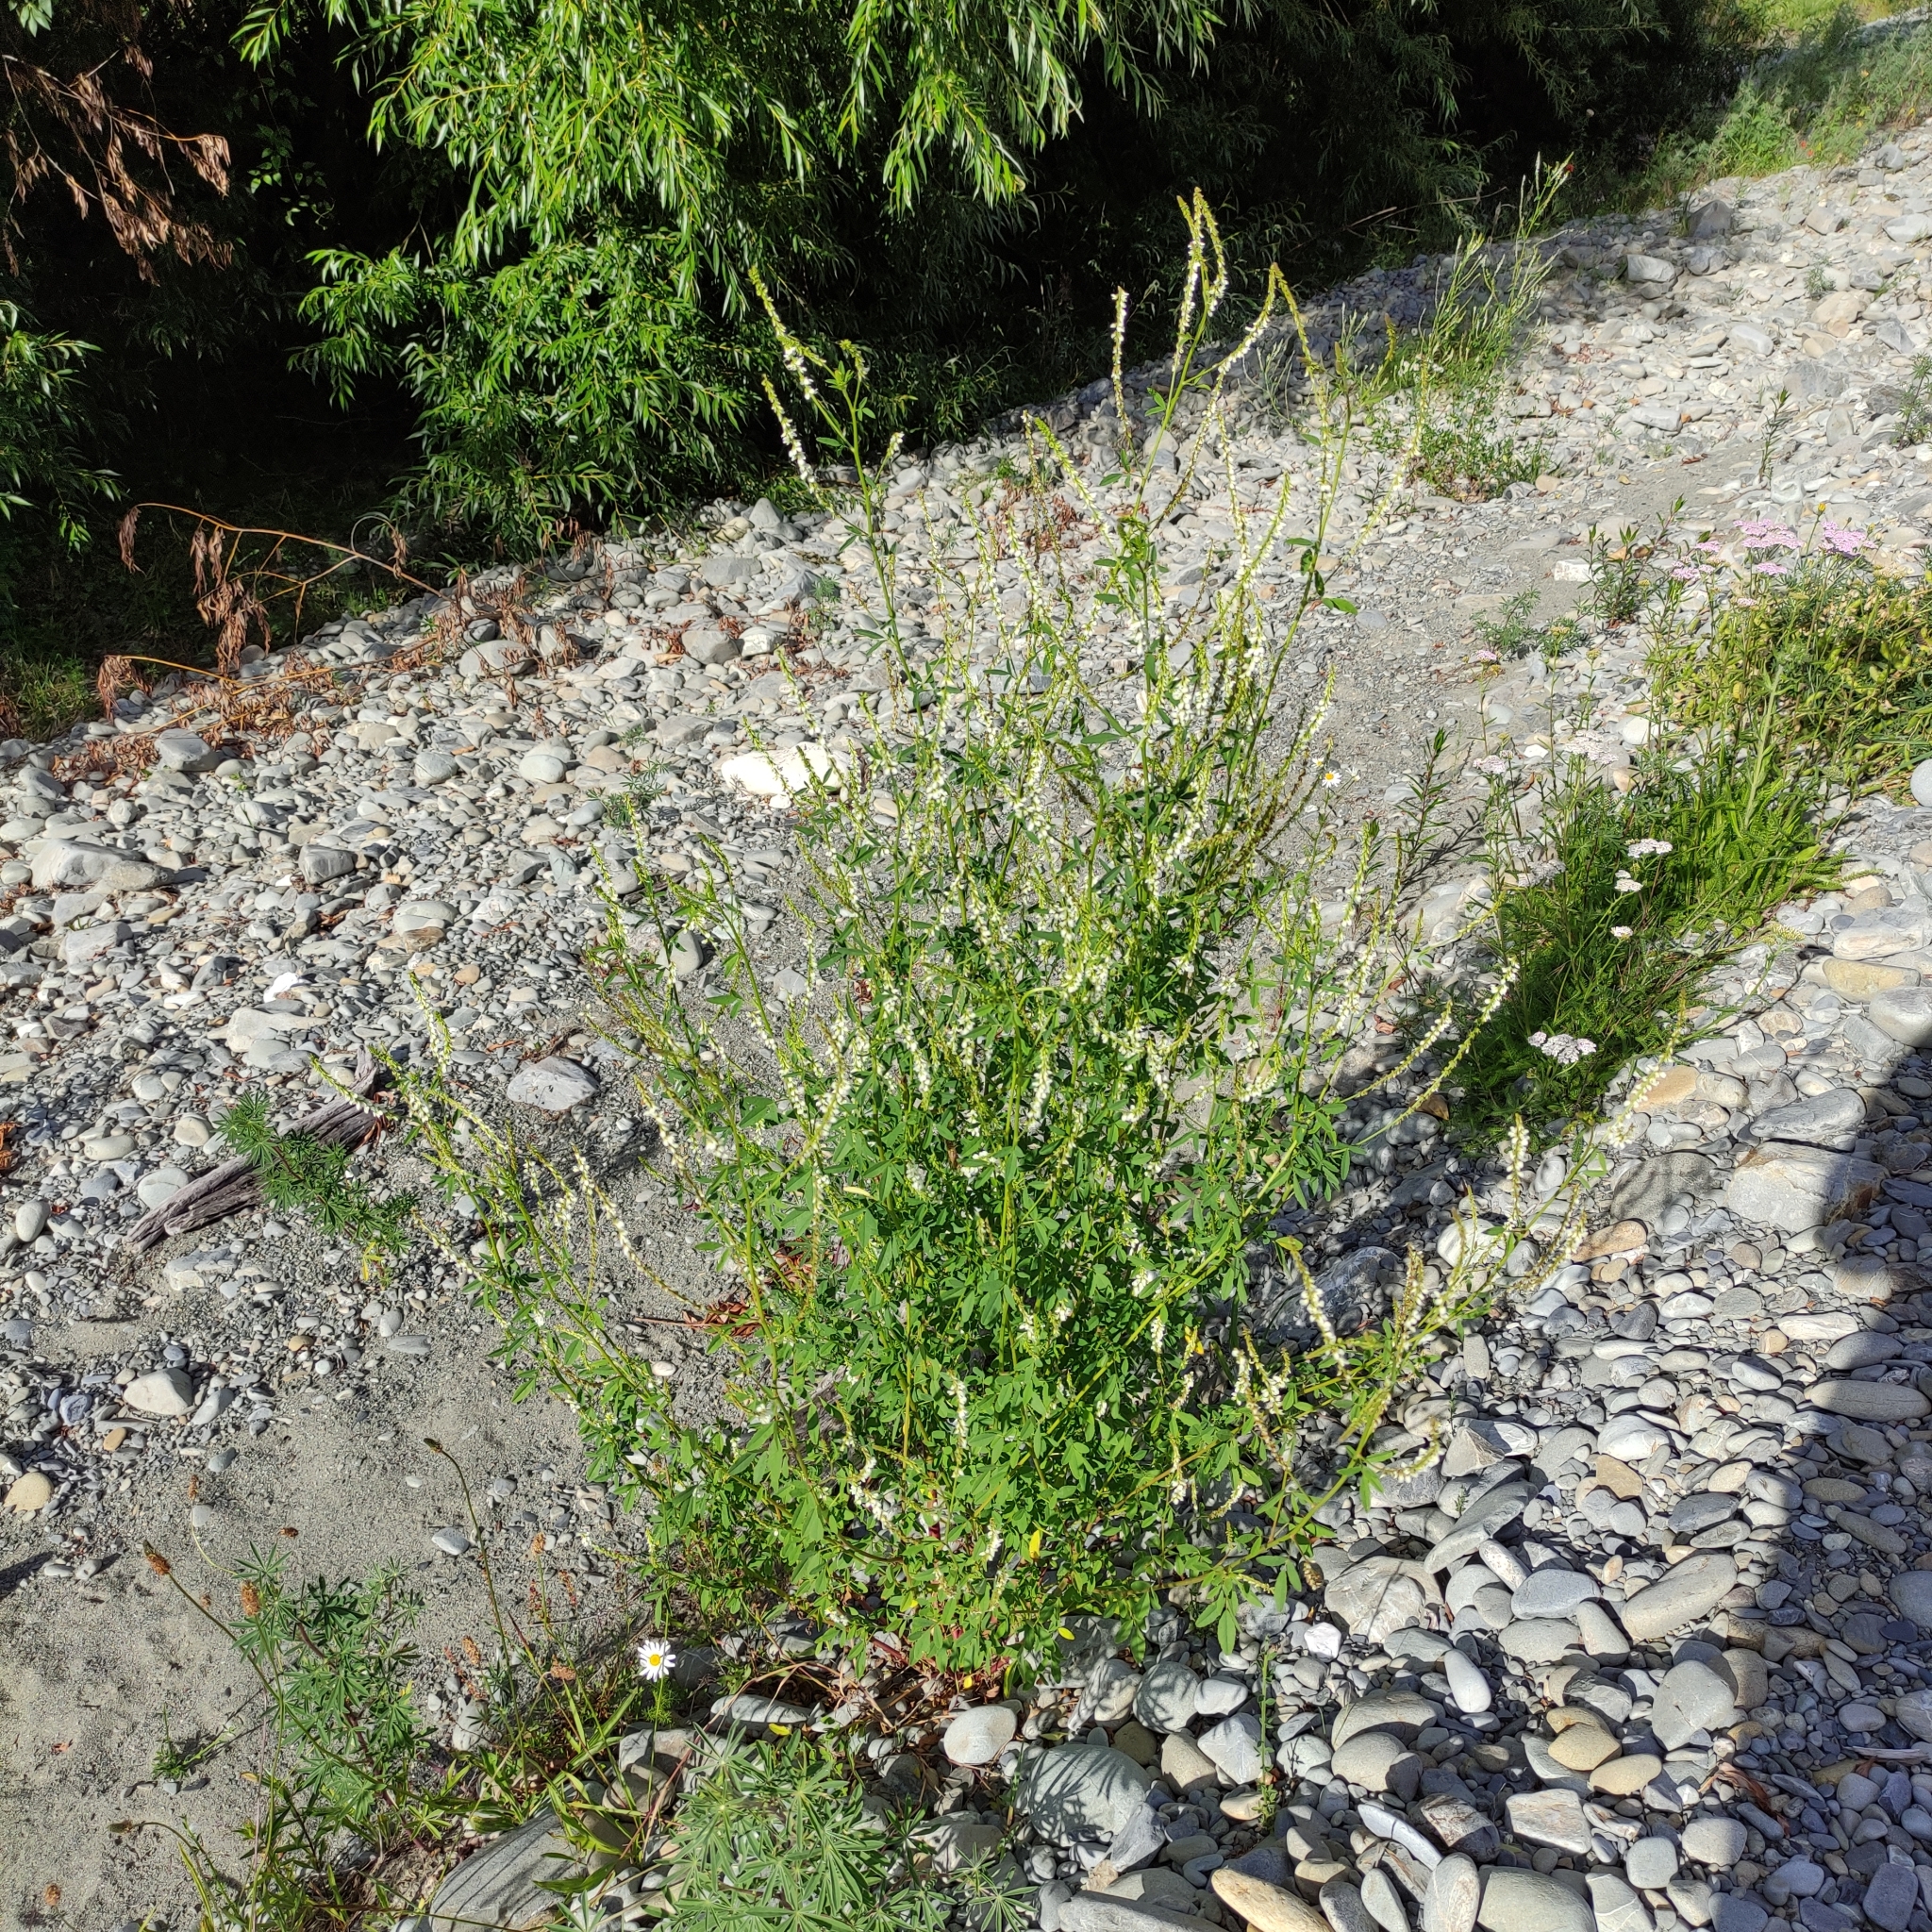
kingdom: Plantae
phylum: Tracheophyta
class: Magnoliopsida
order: Fabales
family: Fabaceae
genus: Melilotus
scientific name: Melilotus albus
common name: White melilot
